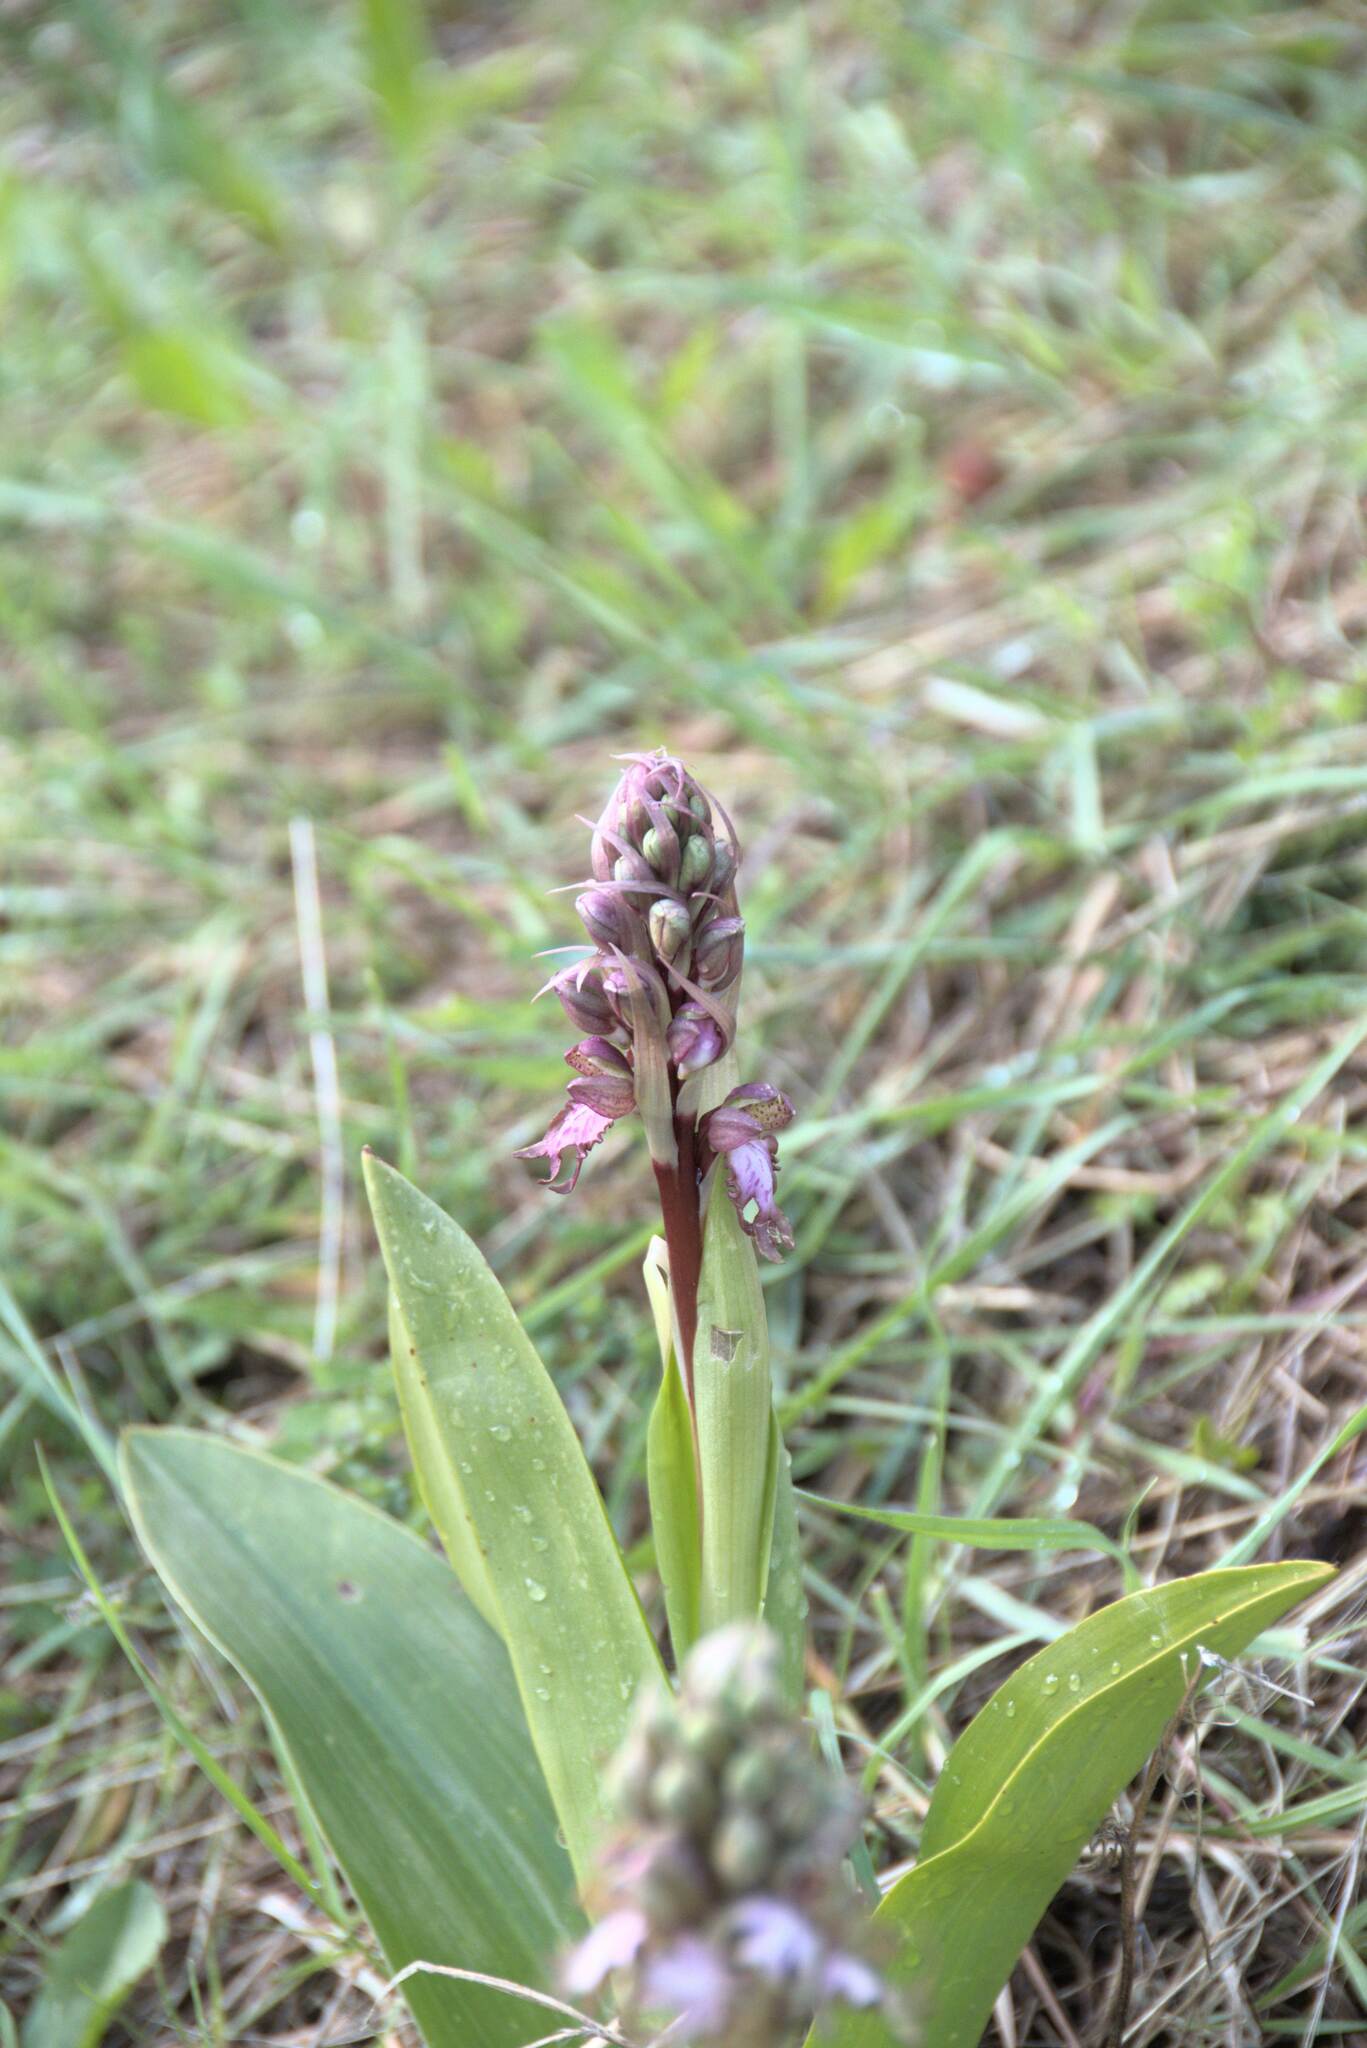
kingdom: Plantae
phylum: Tracheophyta
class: Liliopsida
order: Asparagales
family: Orchidaceae
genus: Himantoglossum
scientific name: Himantoglossum robertianum
